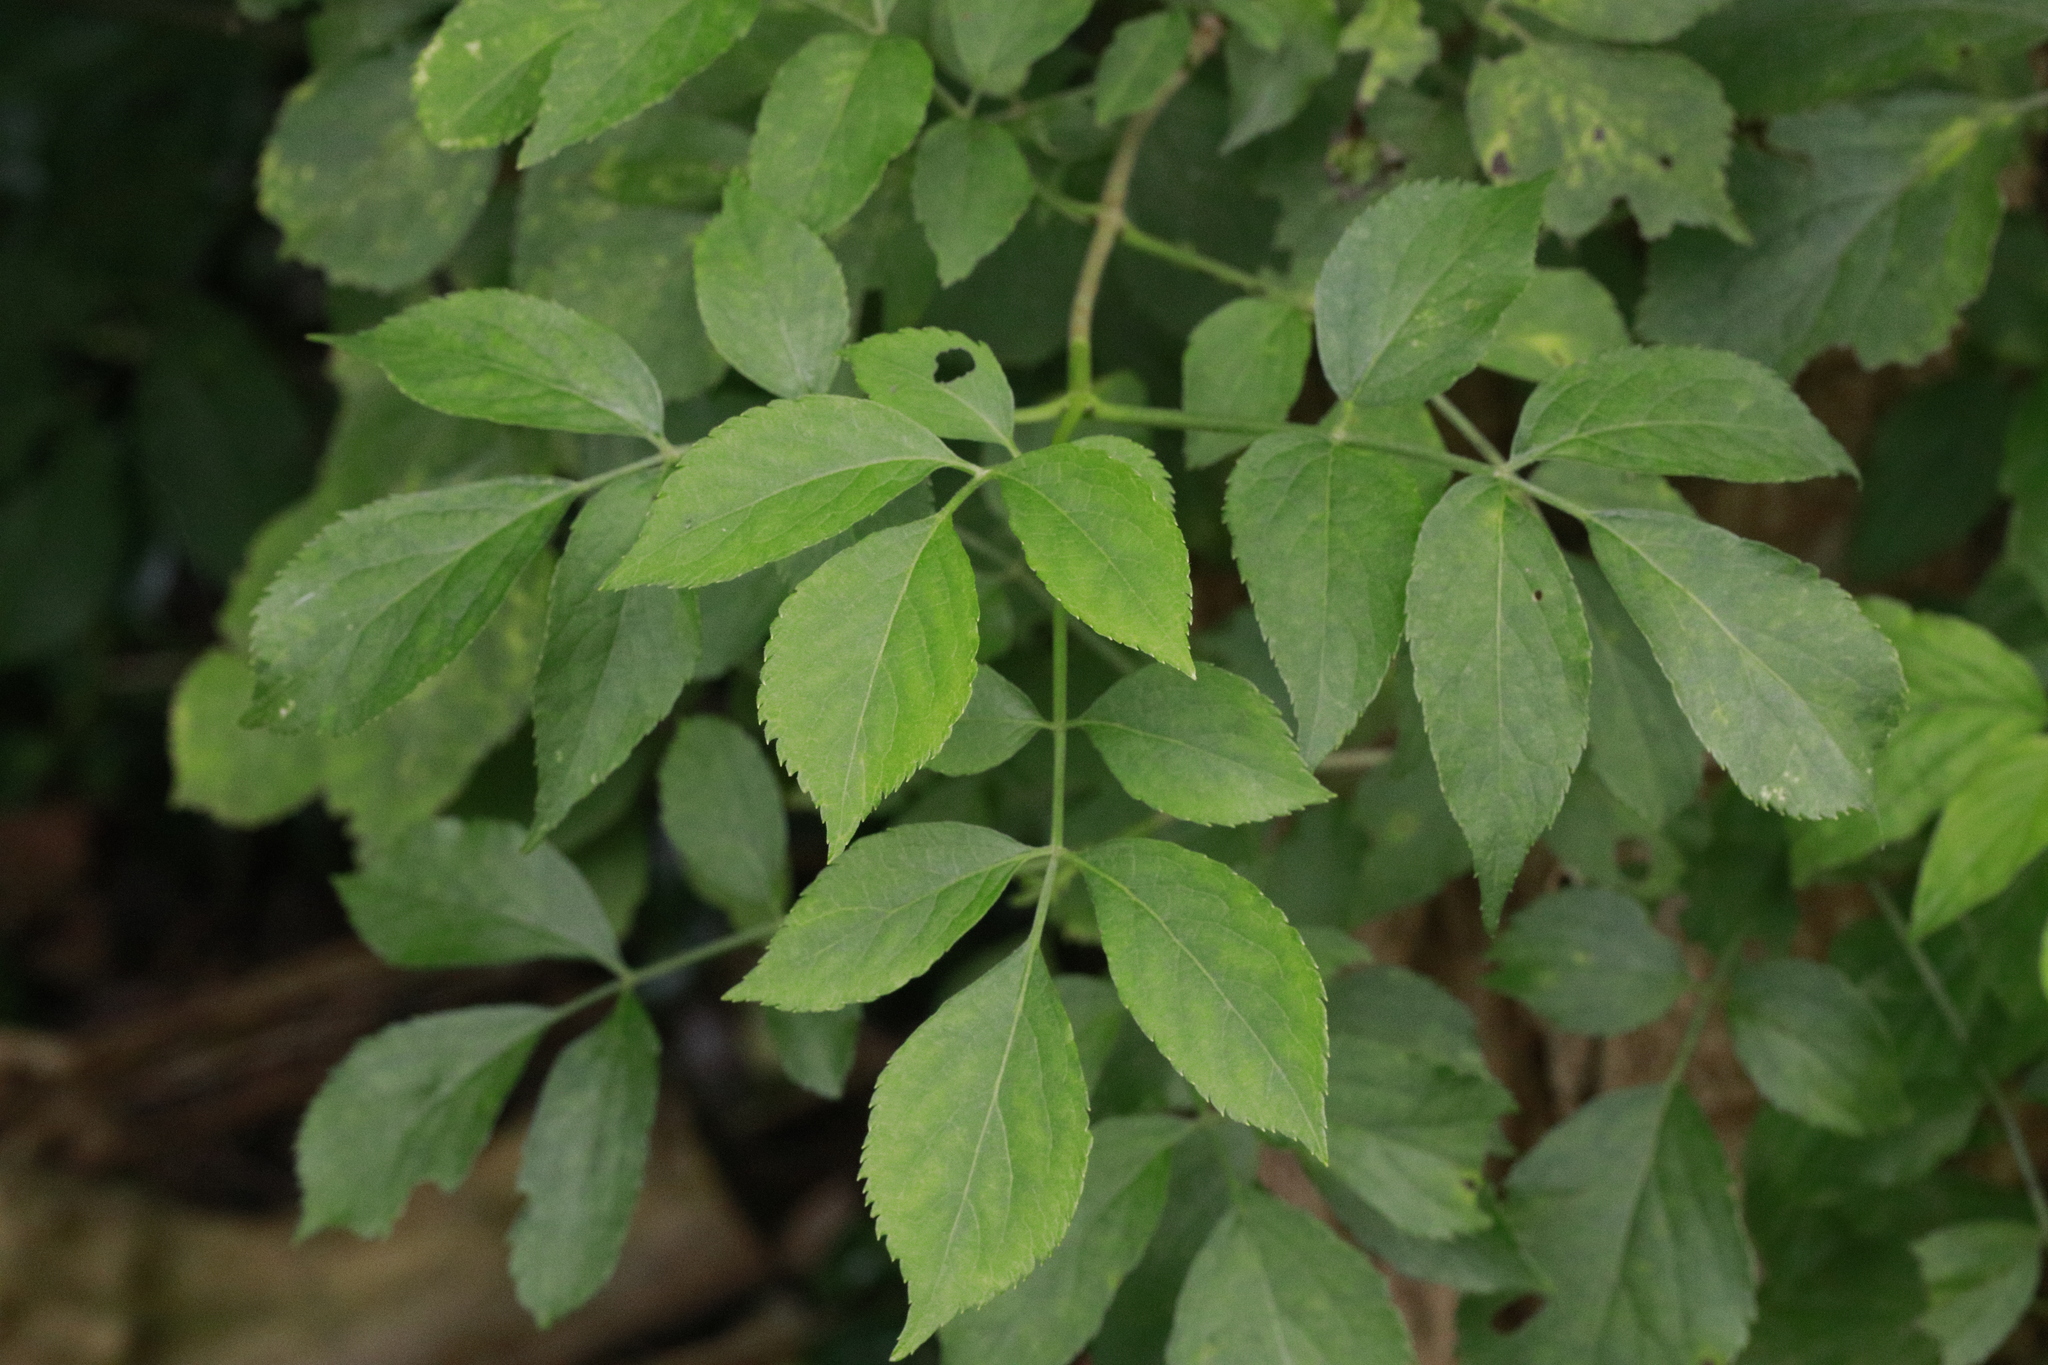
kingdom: Plantae
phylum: Tracheophyta
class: Magnoliopsida
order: Dipsacales
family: Viburnaceae
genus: Sambucus
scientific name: Sambucus nigra
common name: Elder
